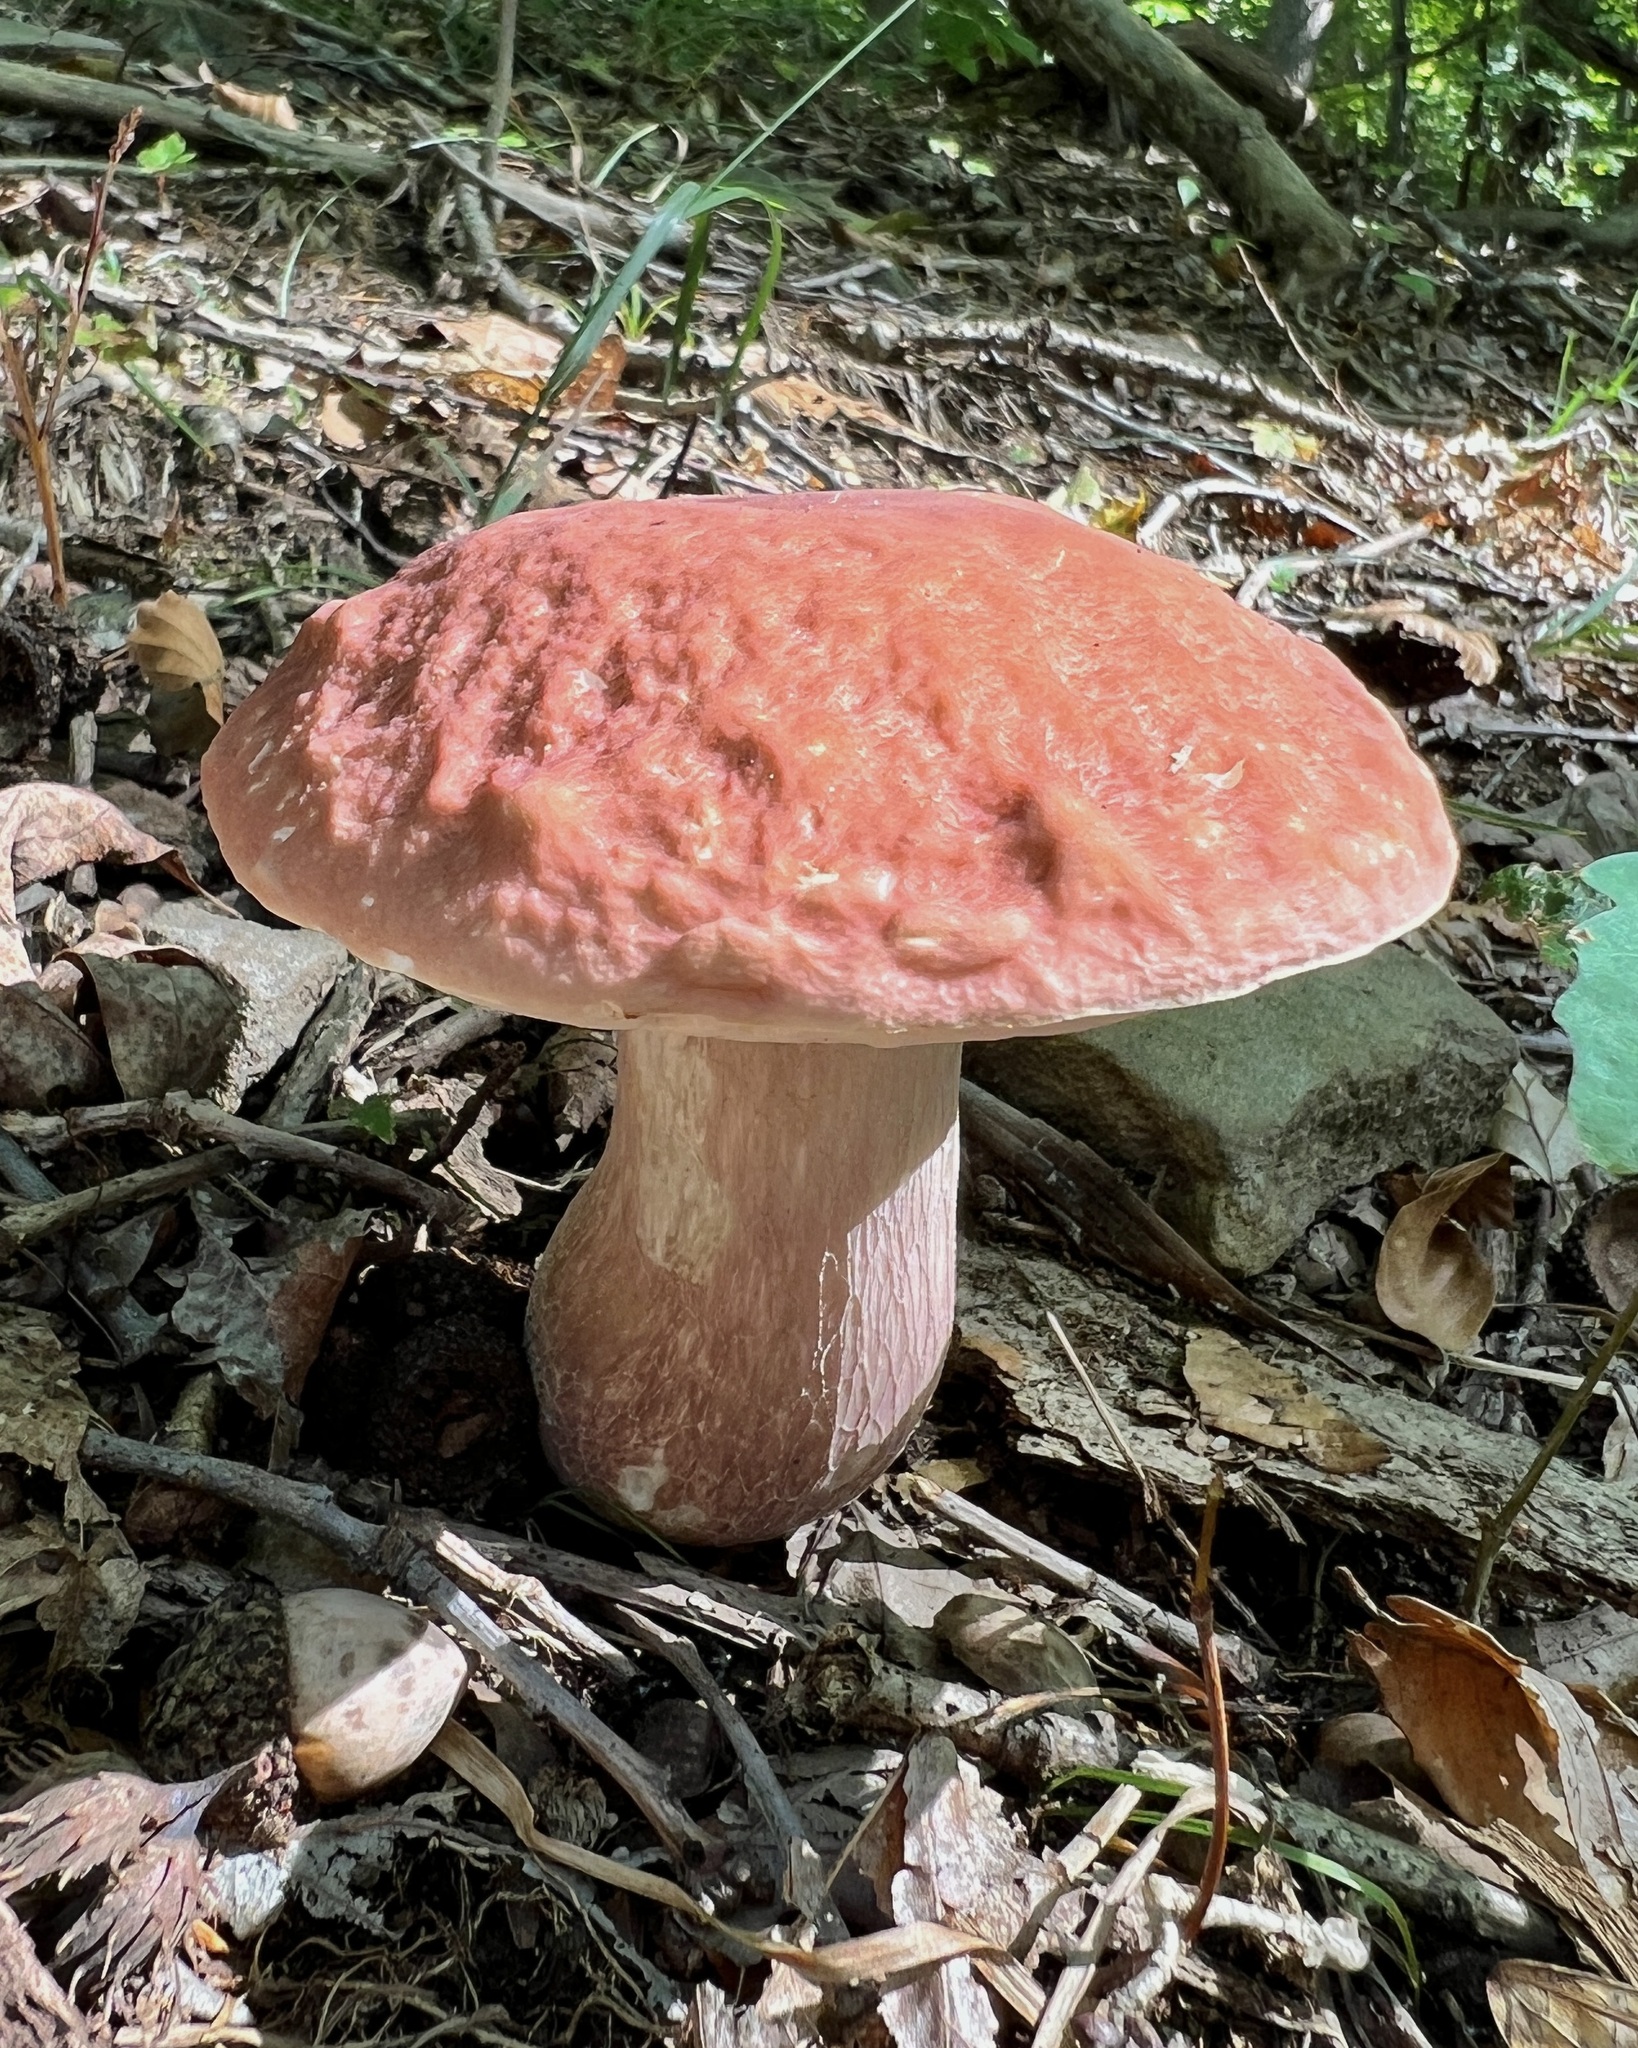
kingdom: Fungi
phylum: Basidiomycota
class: Agaricomycetes
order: Boletales
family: Boletaceae
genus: Xanthoconium
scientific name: Xanthoconium separans
